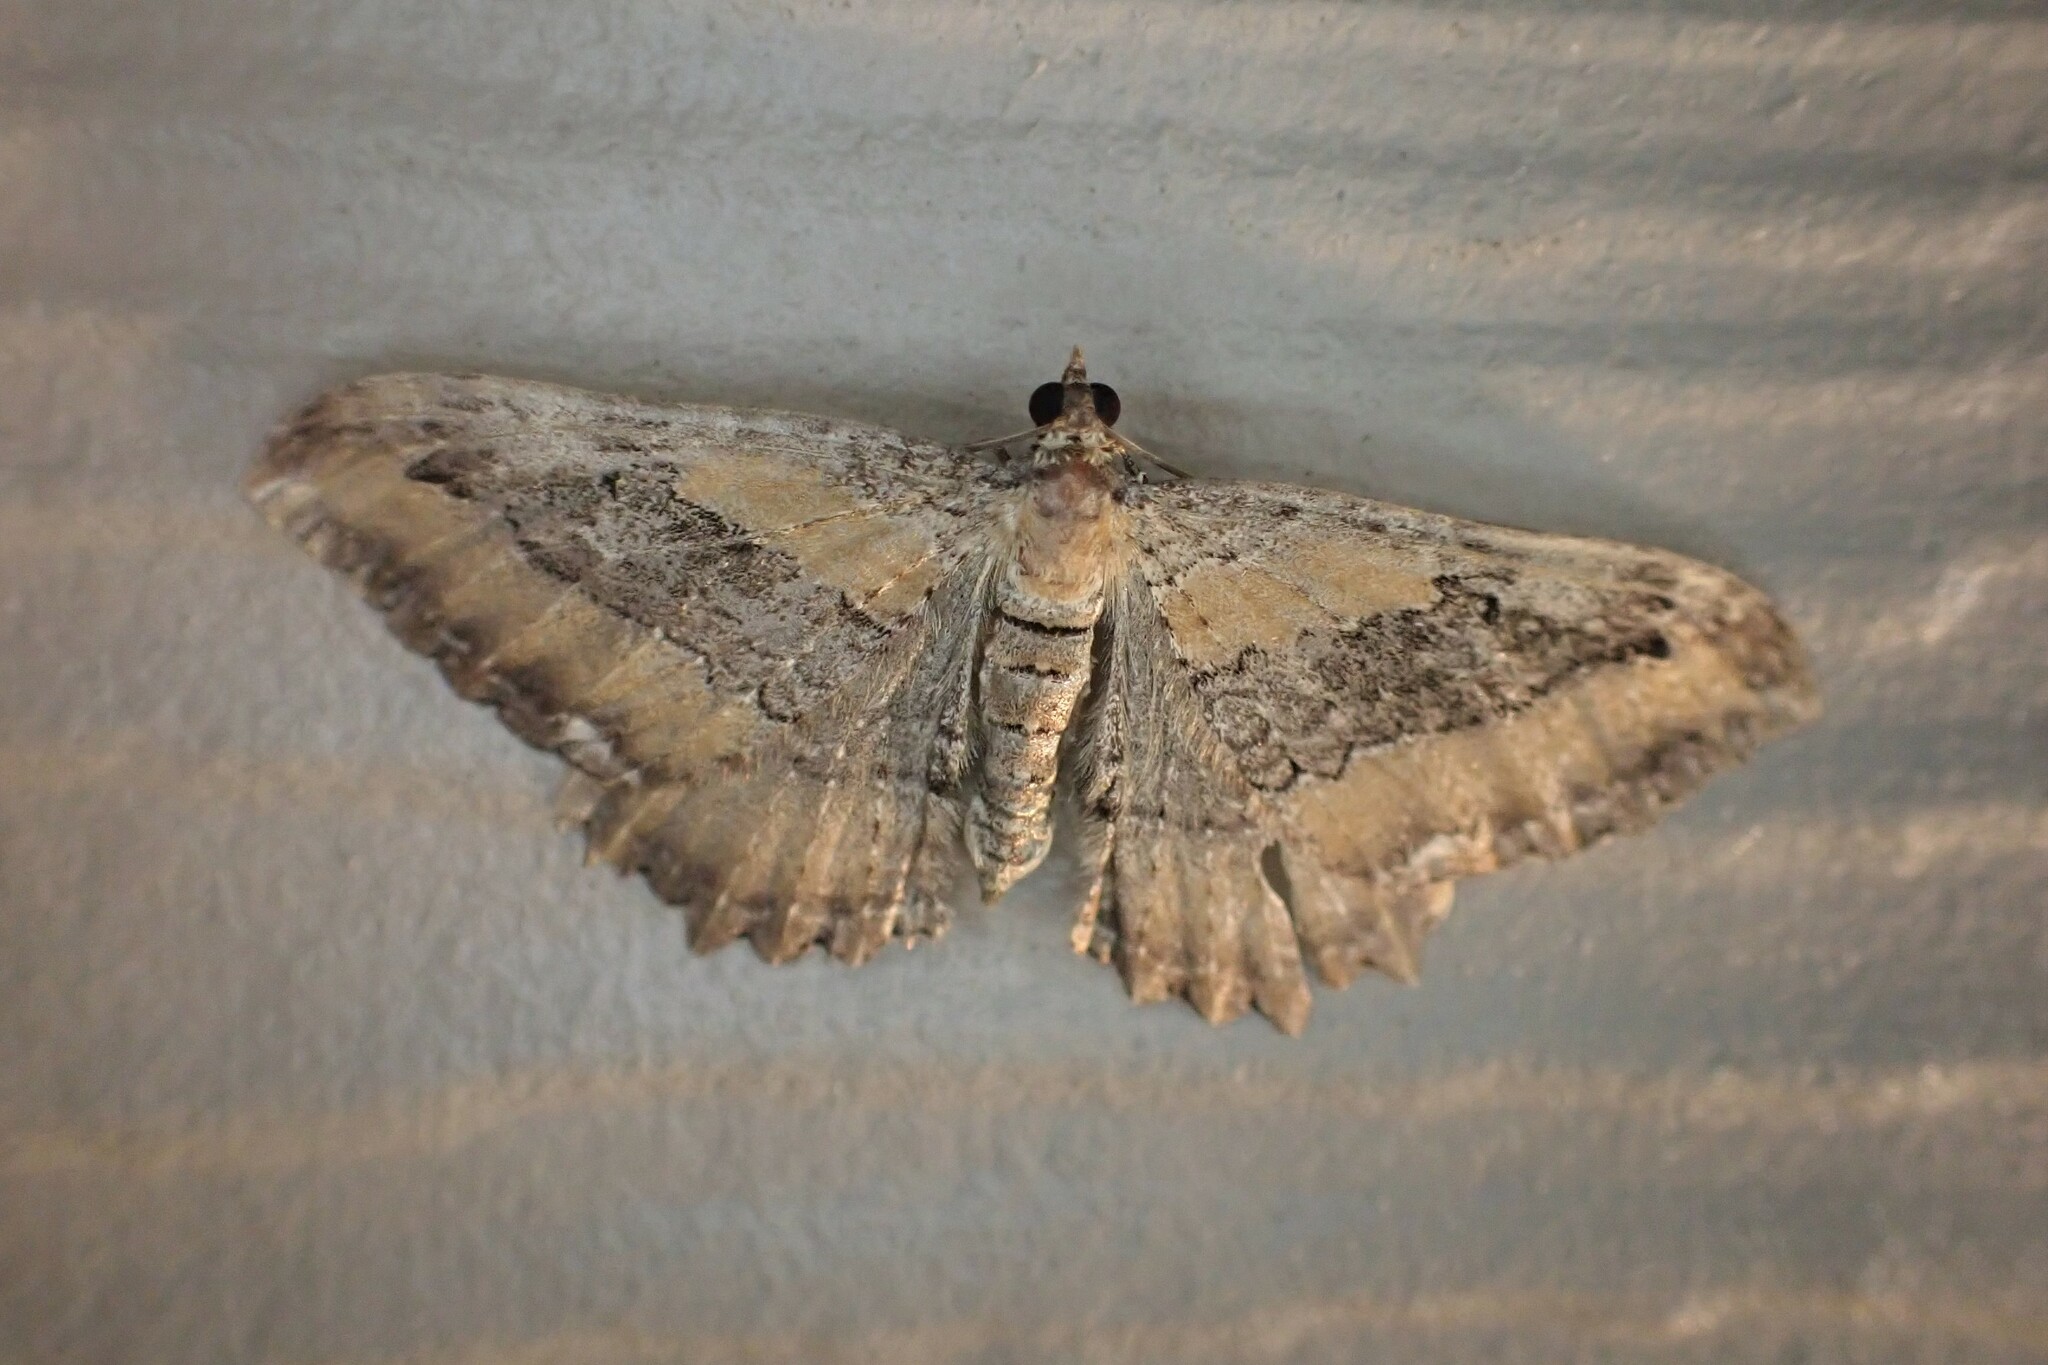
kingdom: Animalia
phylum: Arthropoda
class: Insecta
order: Lepidoptera
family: Geometridae
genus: Rheumaptera
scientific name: Rheumaptera
